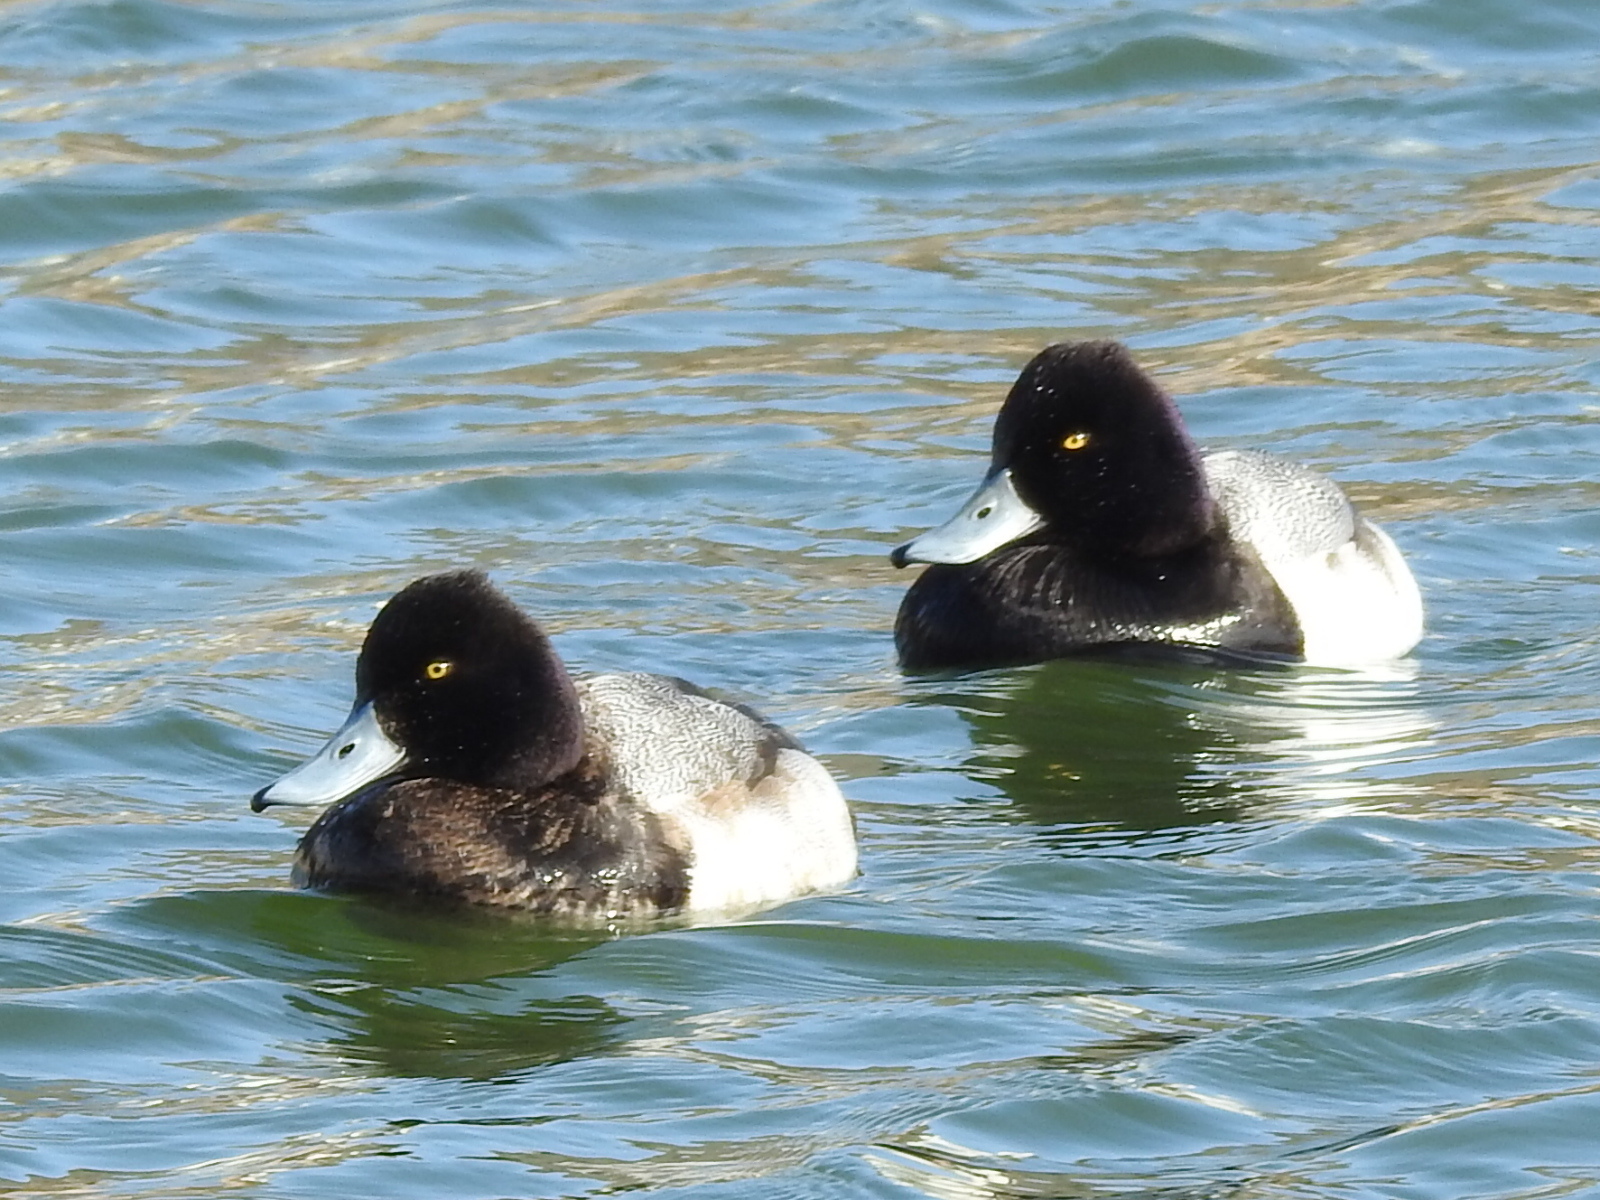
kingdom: Animalia
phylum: Chordata
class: Aves
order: Anseriformes
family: Anatidae
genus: Aythya
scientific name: Aythya affinis
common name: Lesser scaup
